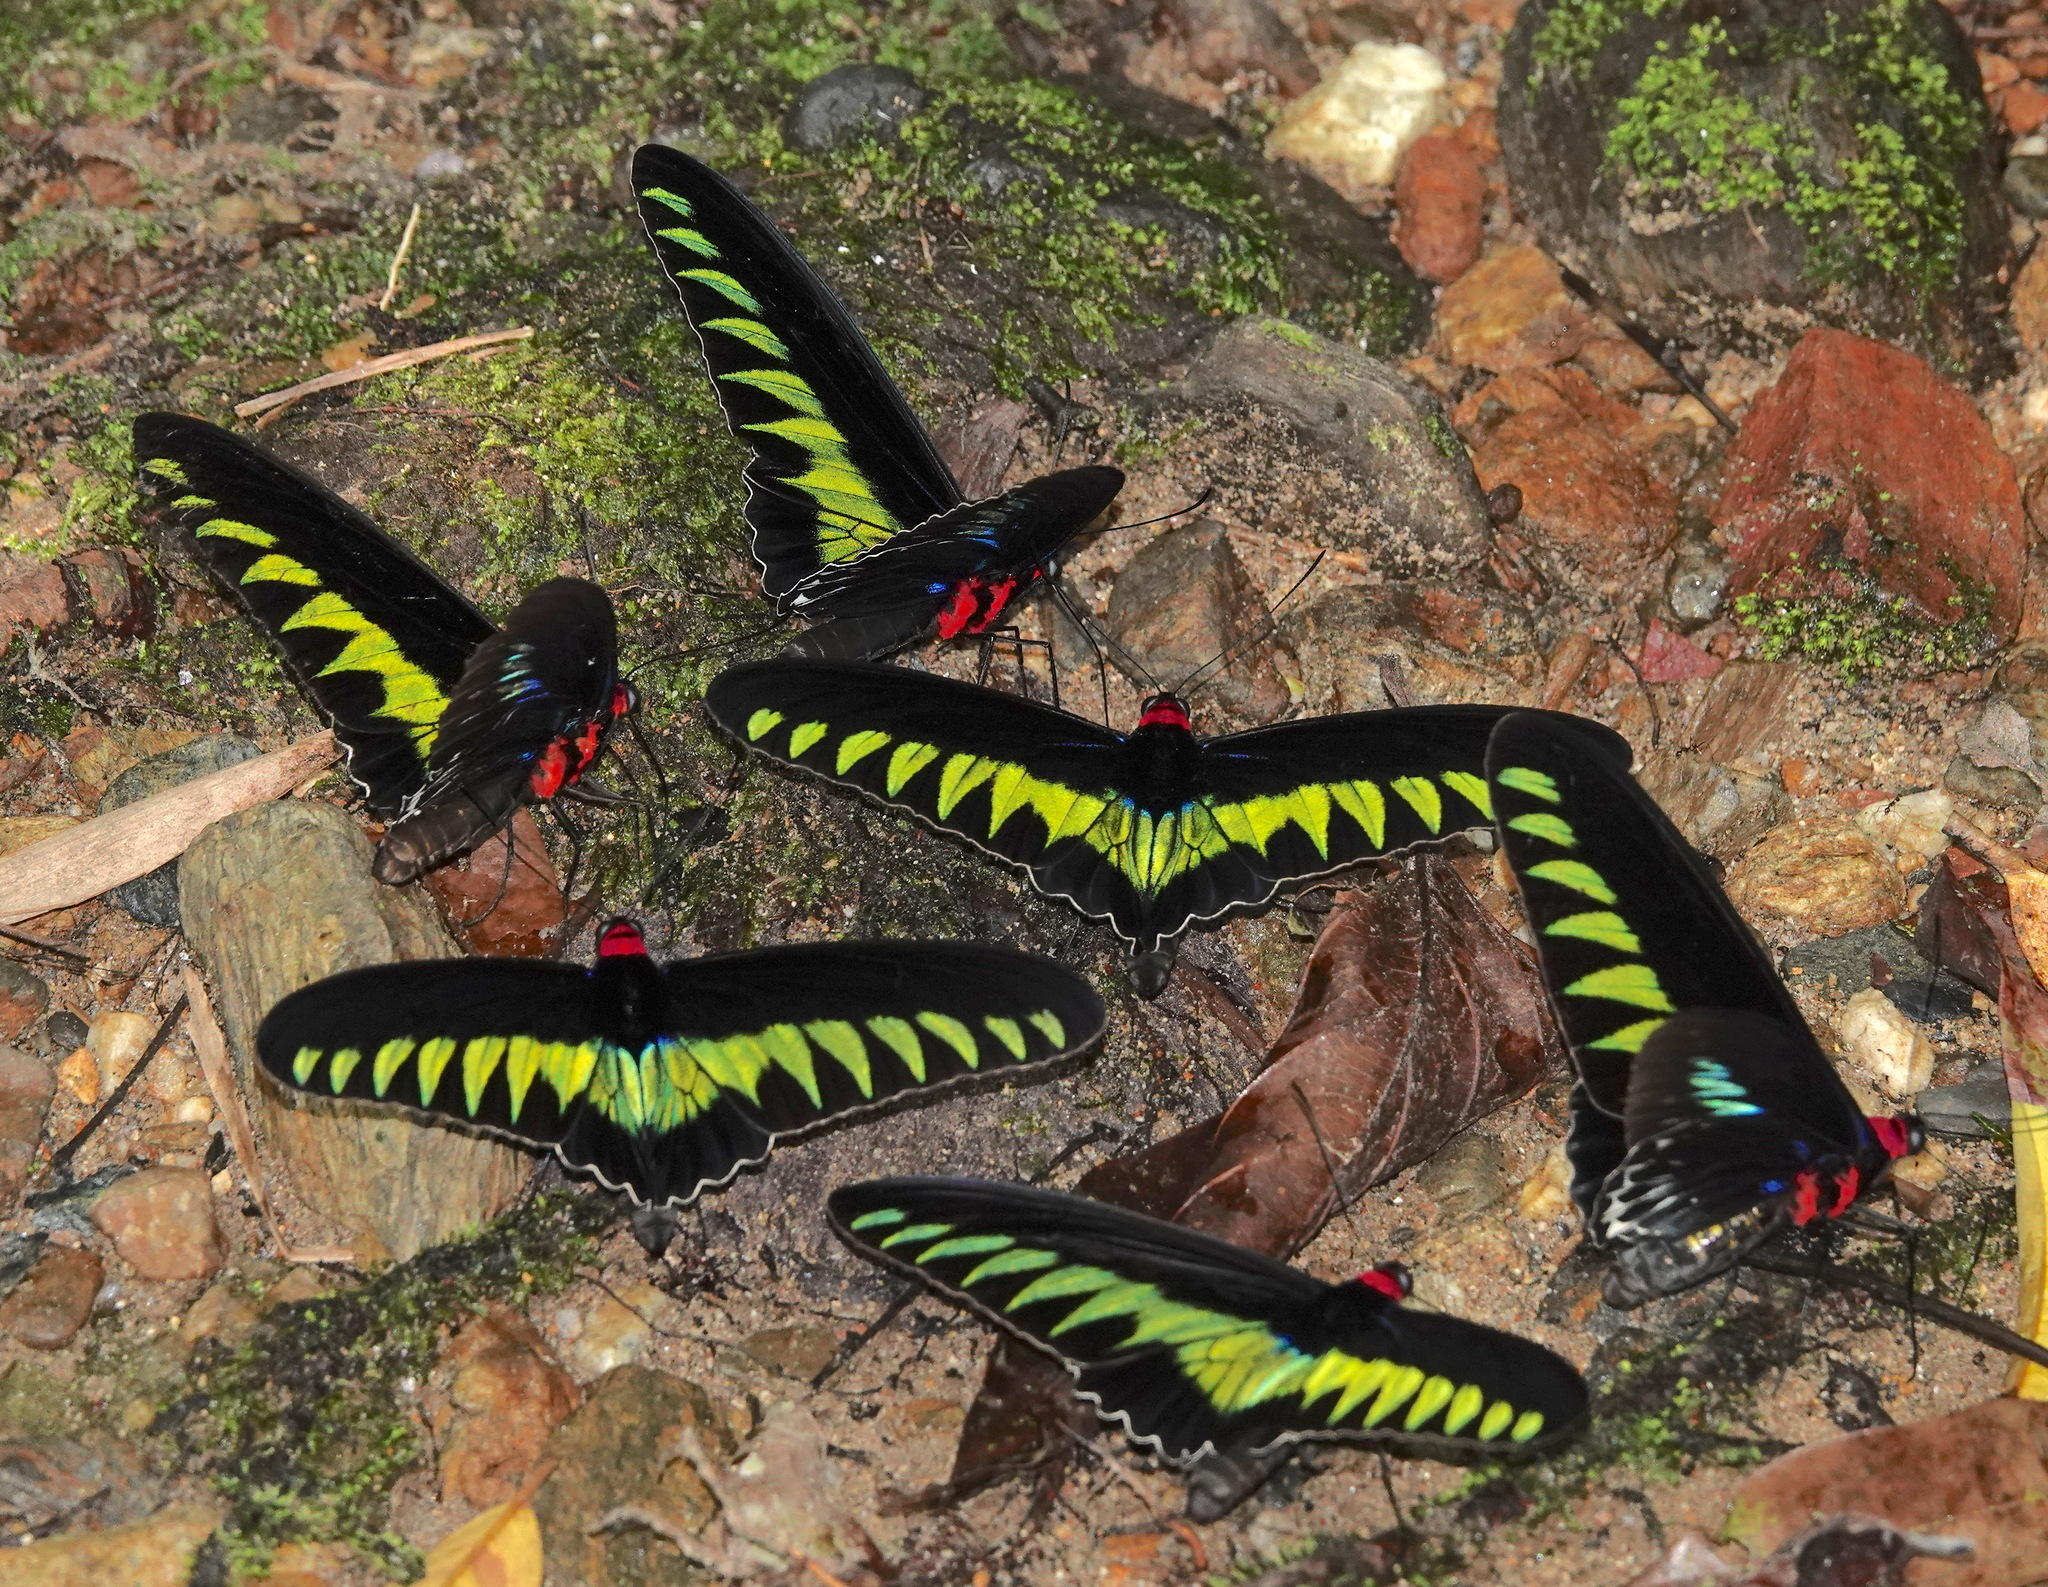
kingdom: Animalia
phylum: Arthropoda
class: Insecta
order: Lepidoptera
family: Papilionidae
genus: Trogonoptera
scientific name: Trogonoptera brookiana
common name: Raja brooke's birdwing
